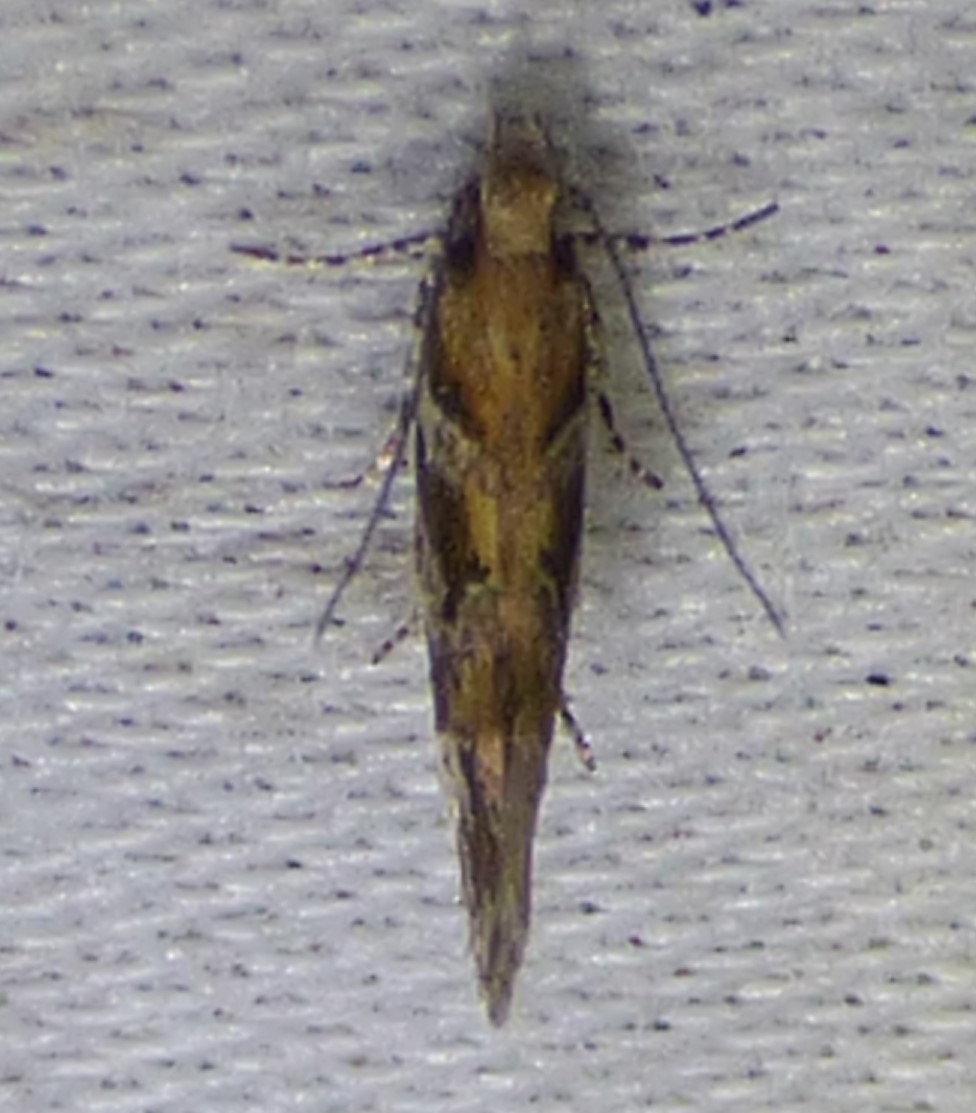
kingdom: Animalia
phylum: Arthropoda
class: Insecta
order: Lepidoptera
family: Gelechiidae
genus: Aristotelia
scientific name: Aristotelia roseosuffusella
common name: Pink-washed aristotelia moth
